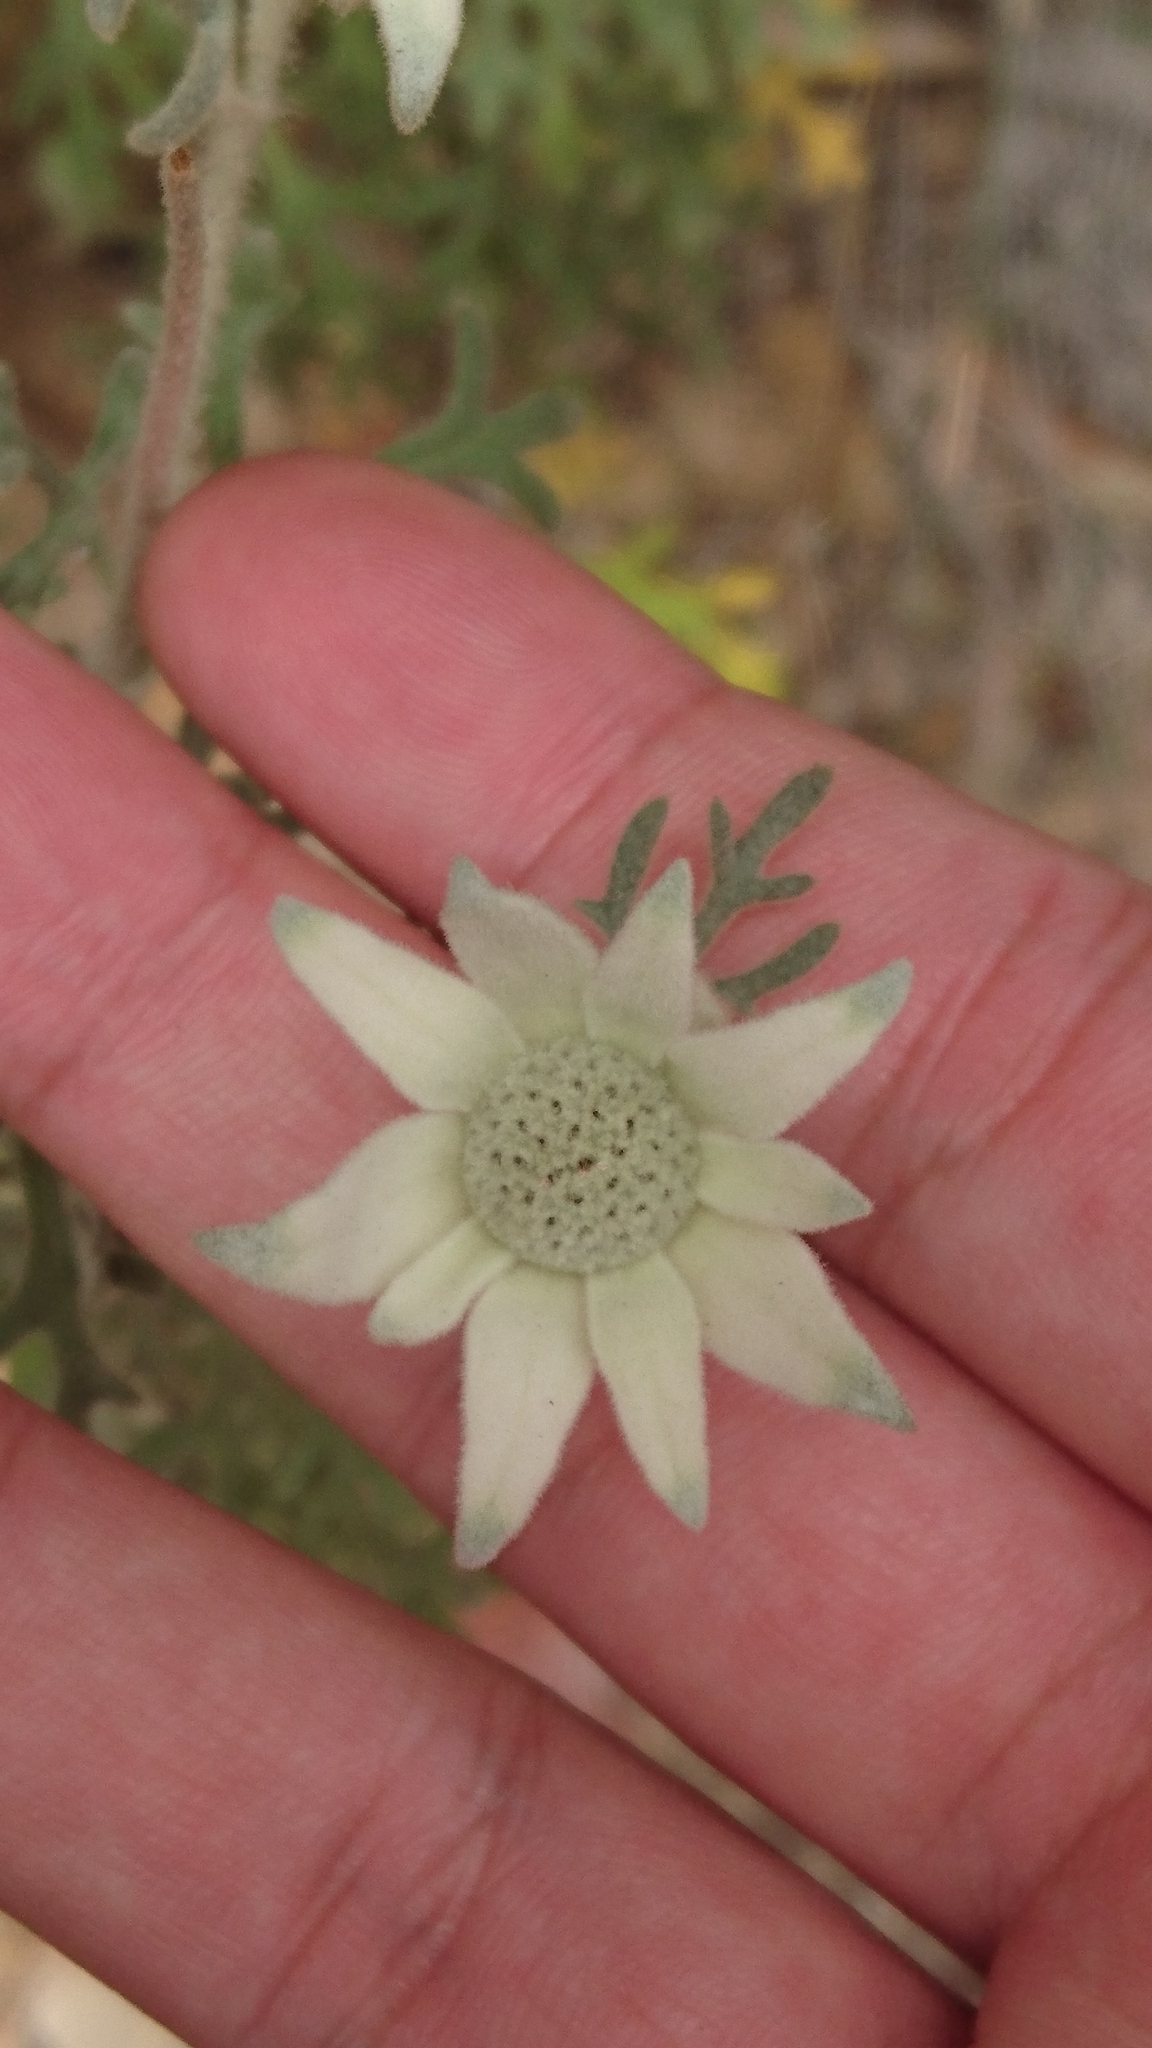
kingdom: Plantae
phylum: Tracheophyta
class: Magnoliopsida
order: Apiales
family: Apiaceae
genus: Actinotus
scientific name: Actinotus helianthi
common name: Flannel-flower
